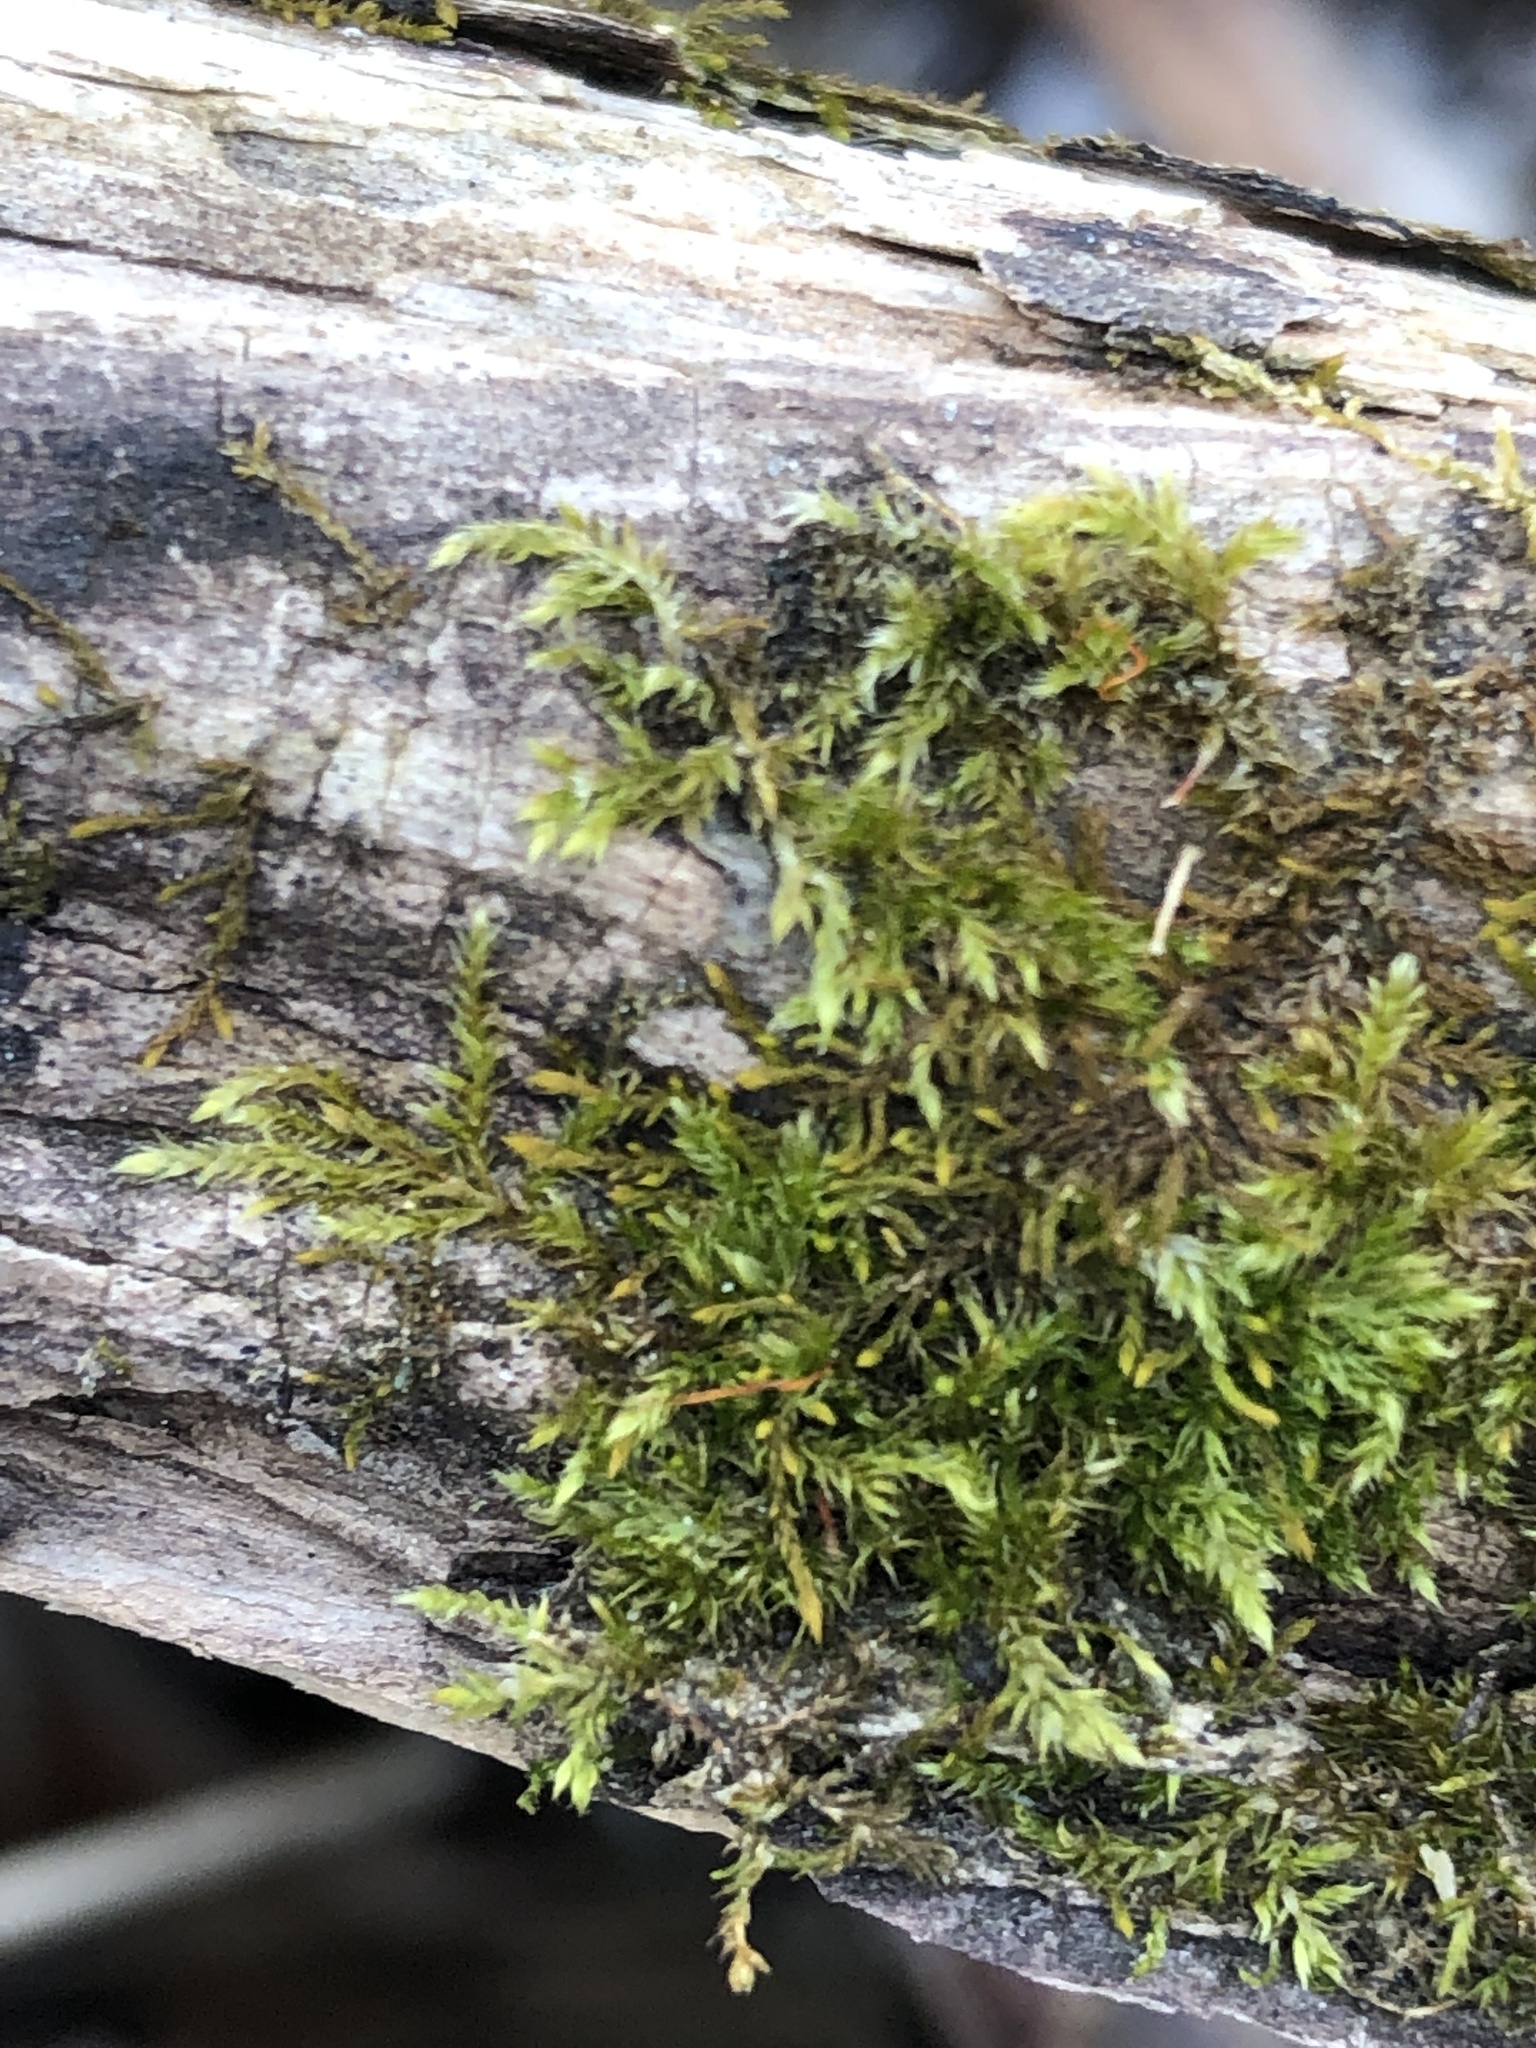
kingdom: Plantae
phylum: Bryophyta
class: Bryopsida
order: Hypnales
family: Callicladiaceae
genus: Callicladium
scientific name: Callicladium haldanianum
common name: Beautiful branch moss
